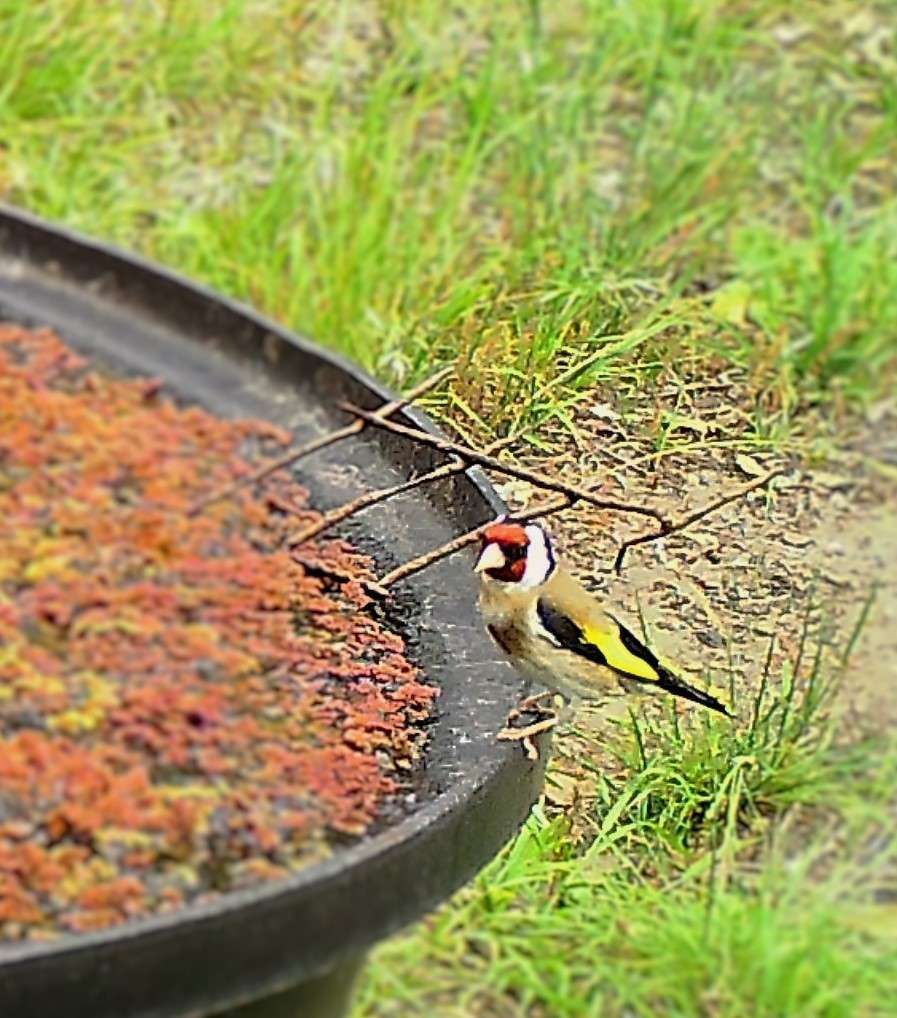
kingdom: Animalia
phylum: Chordata
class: Aves
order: Passeriformes
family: Fringillidae
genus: Carduelis
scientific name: Carduelis carduelis
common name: European goldfinch
